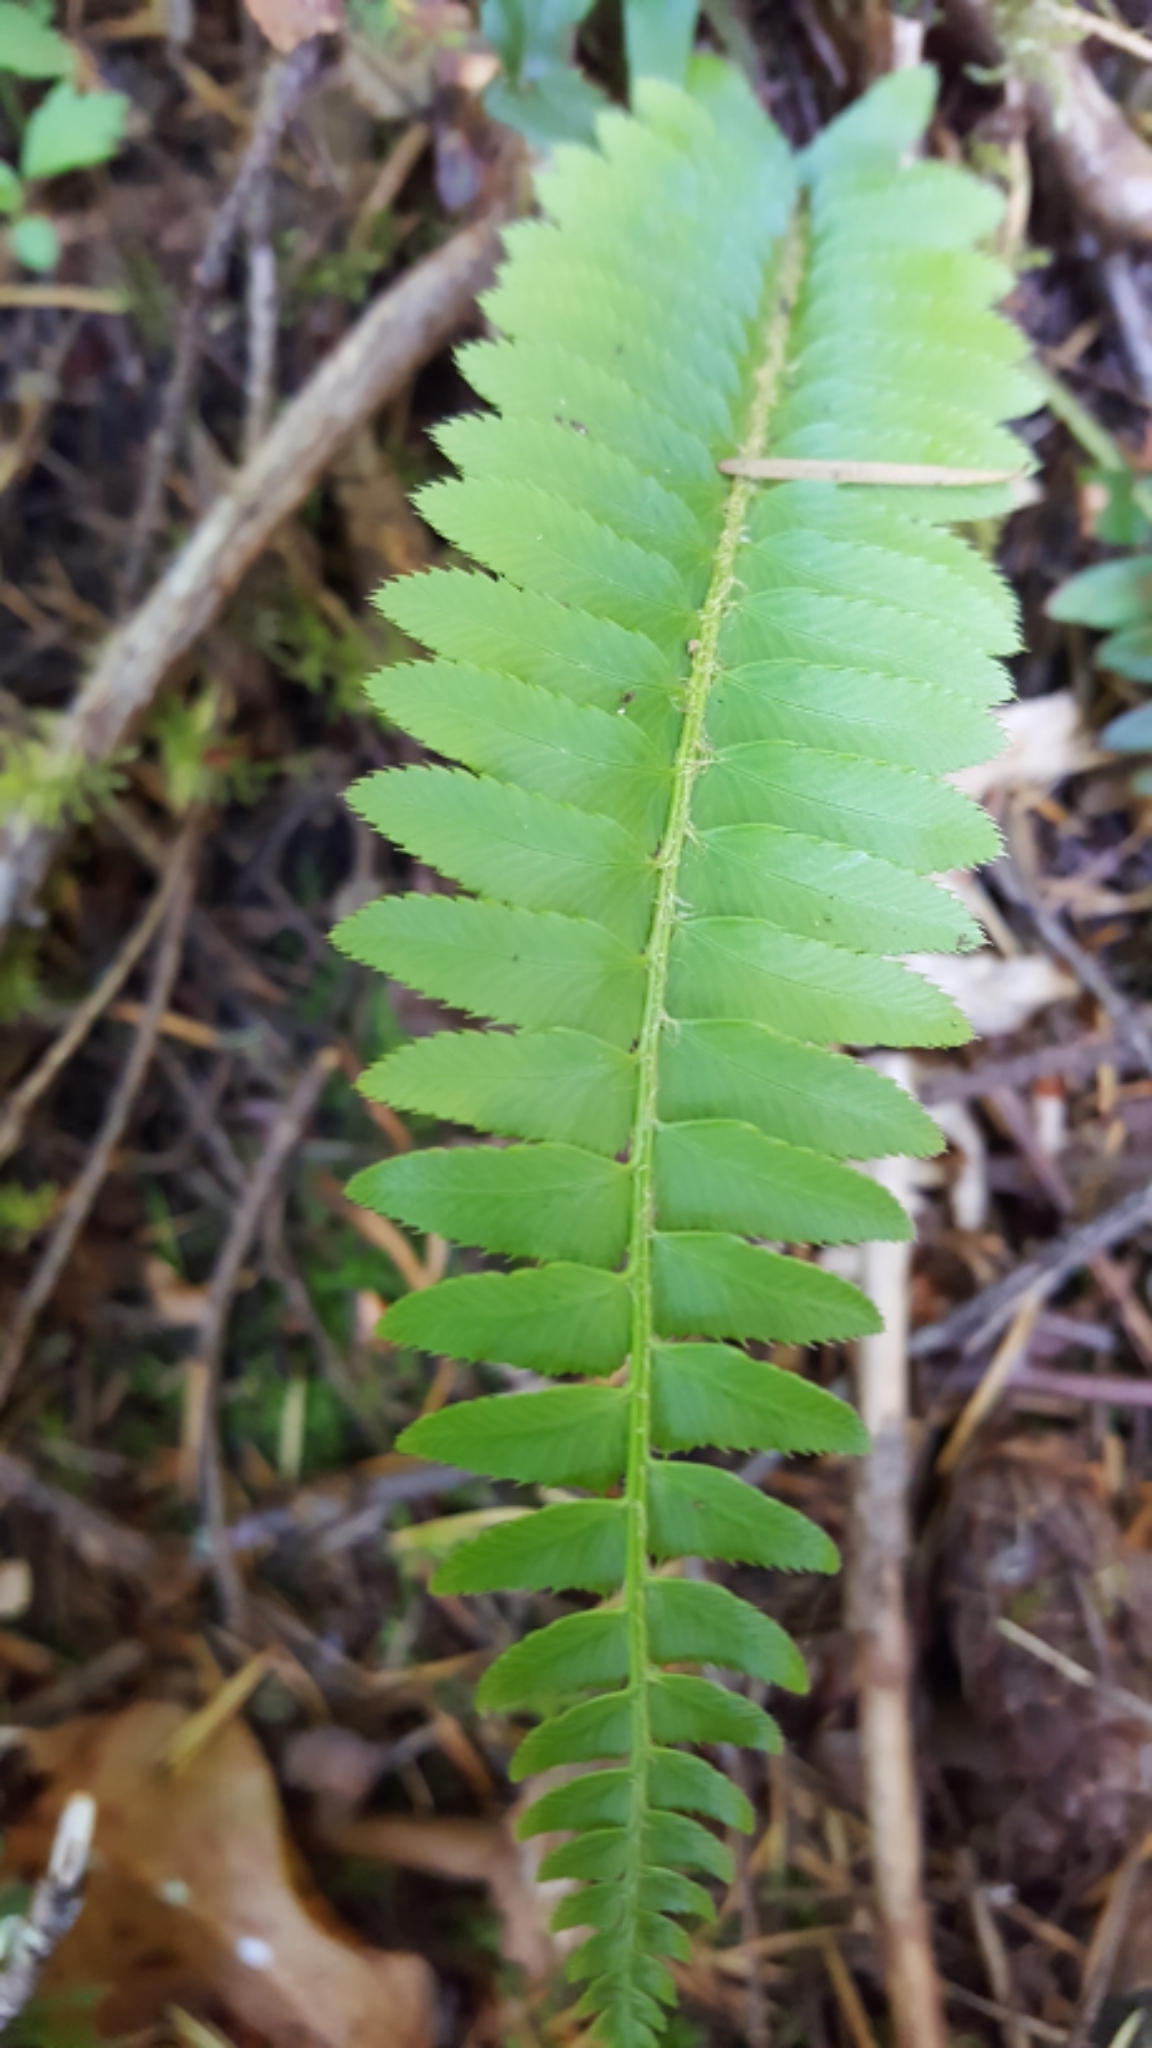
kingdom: Plantae
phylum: Tracheophyta
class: Polypodiopsida
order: Polypodiales
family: Dryopteridaceae
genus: Polystichum
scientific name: Polystichum munitum
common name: Western sword-fern
